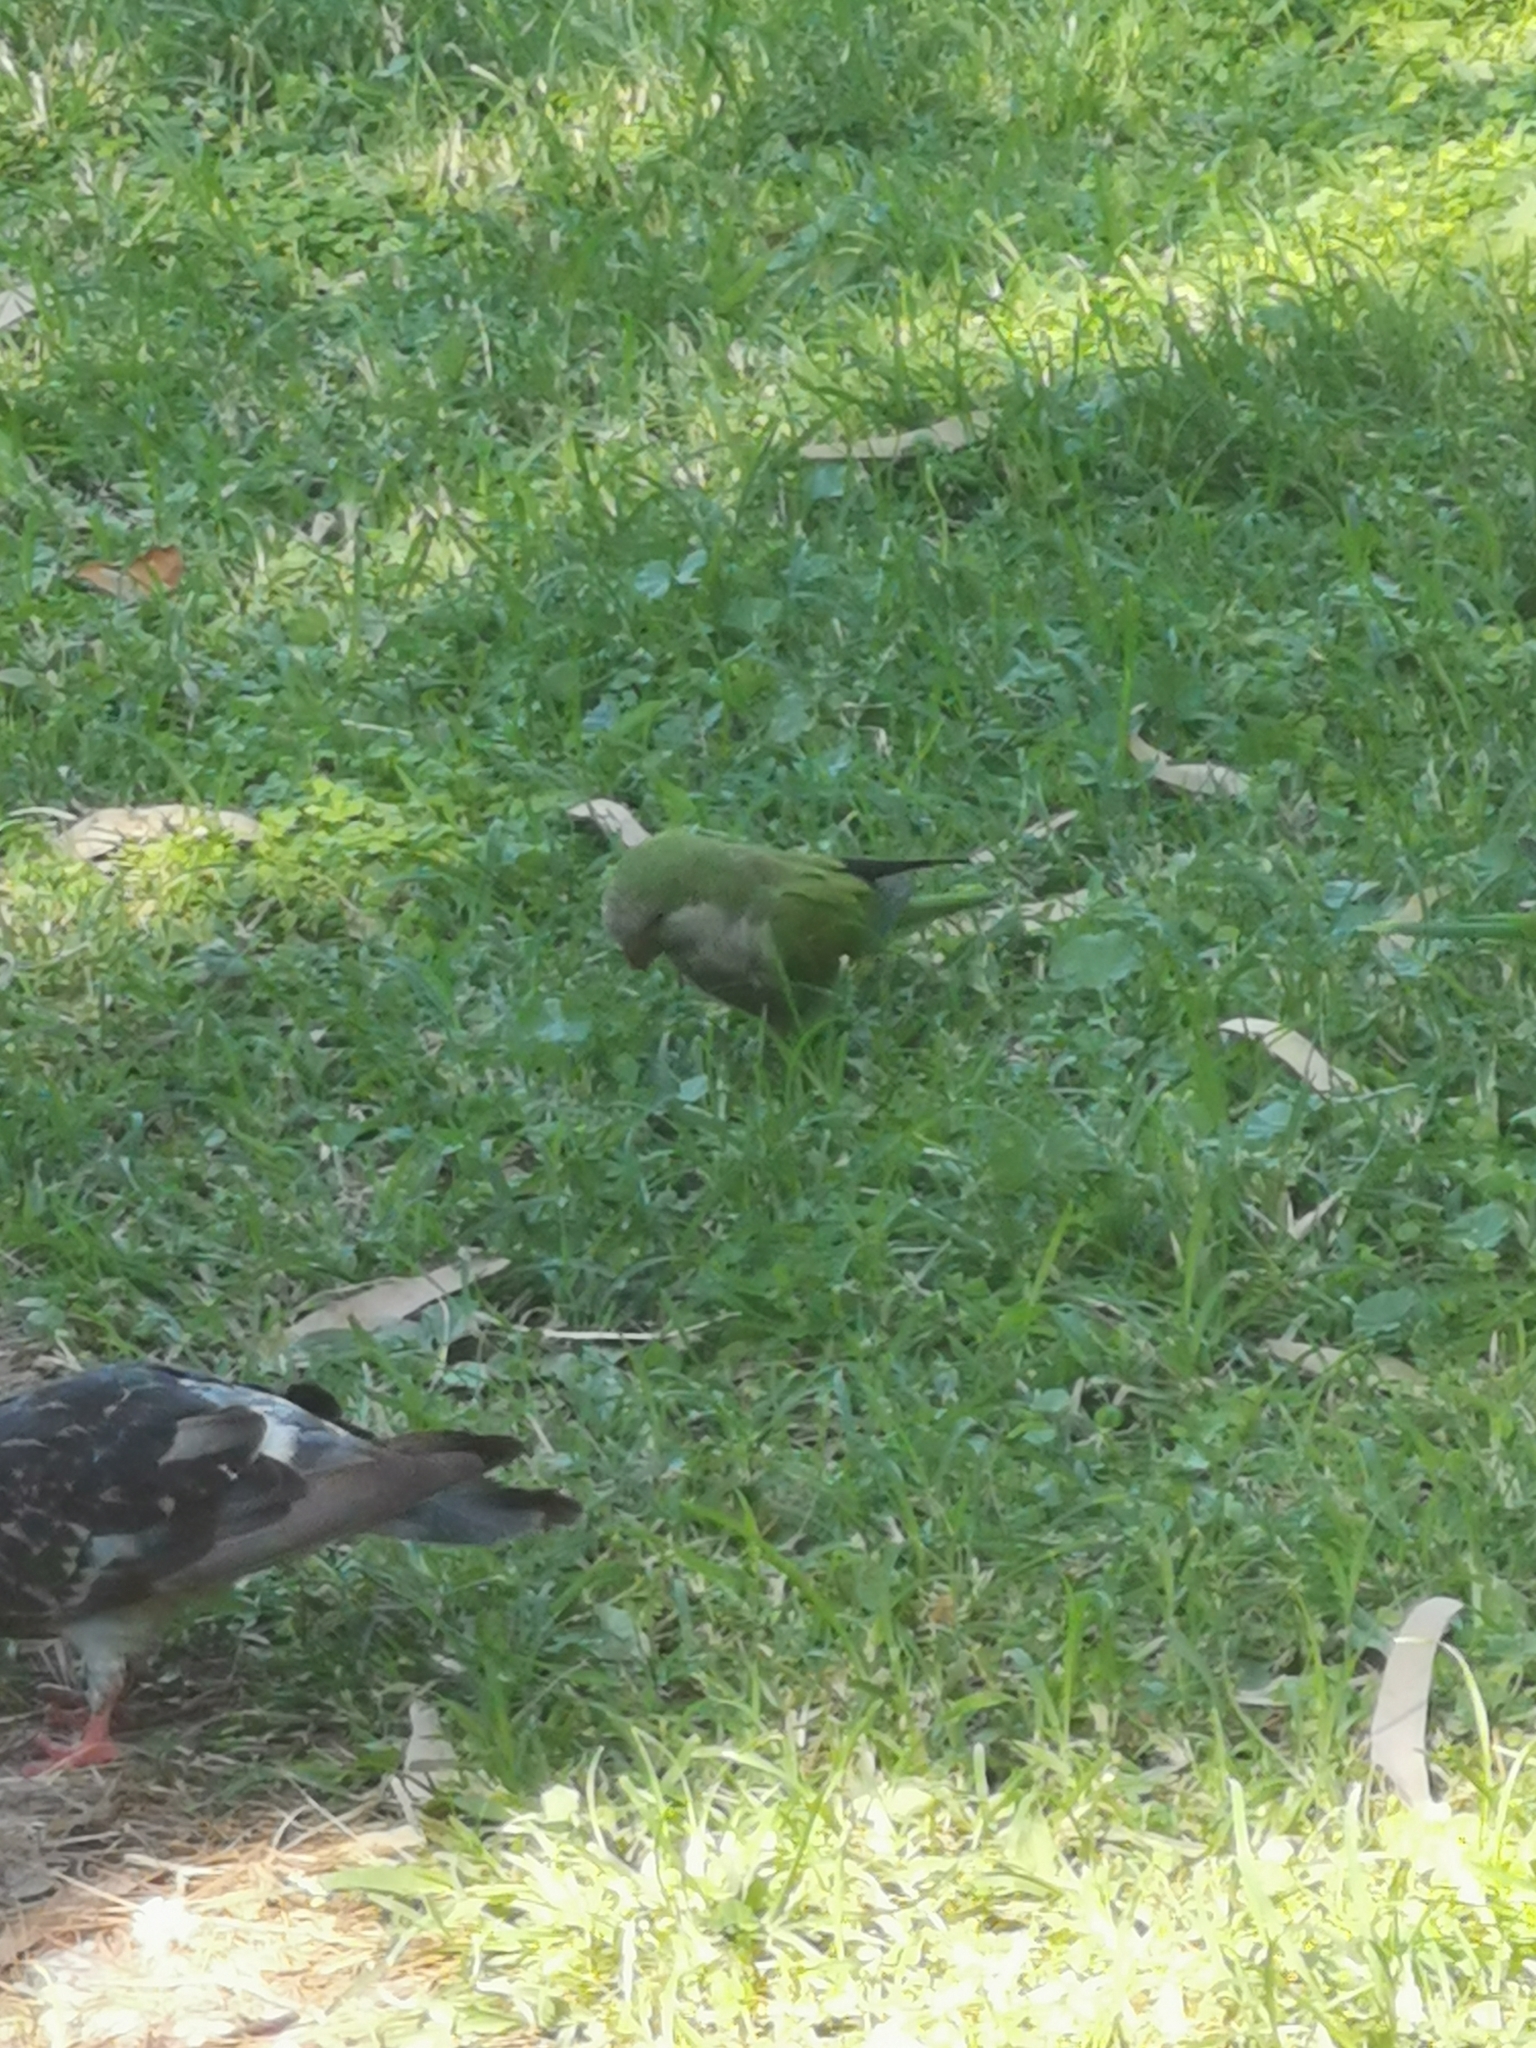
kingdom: Animalia
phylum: Chordata
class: Aves
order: Psittaciformes
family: Psittacidae
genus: Myiopsitta
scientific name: Myiopsitta monachus
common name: Monk parakeet
